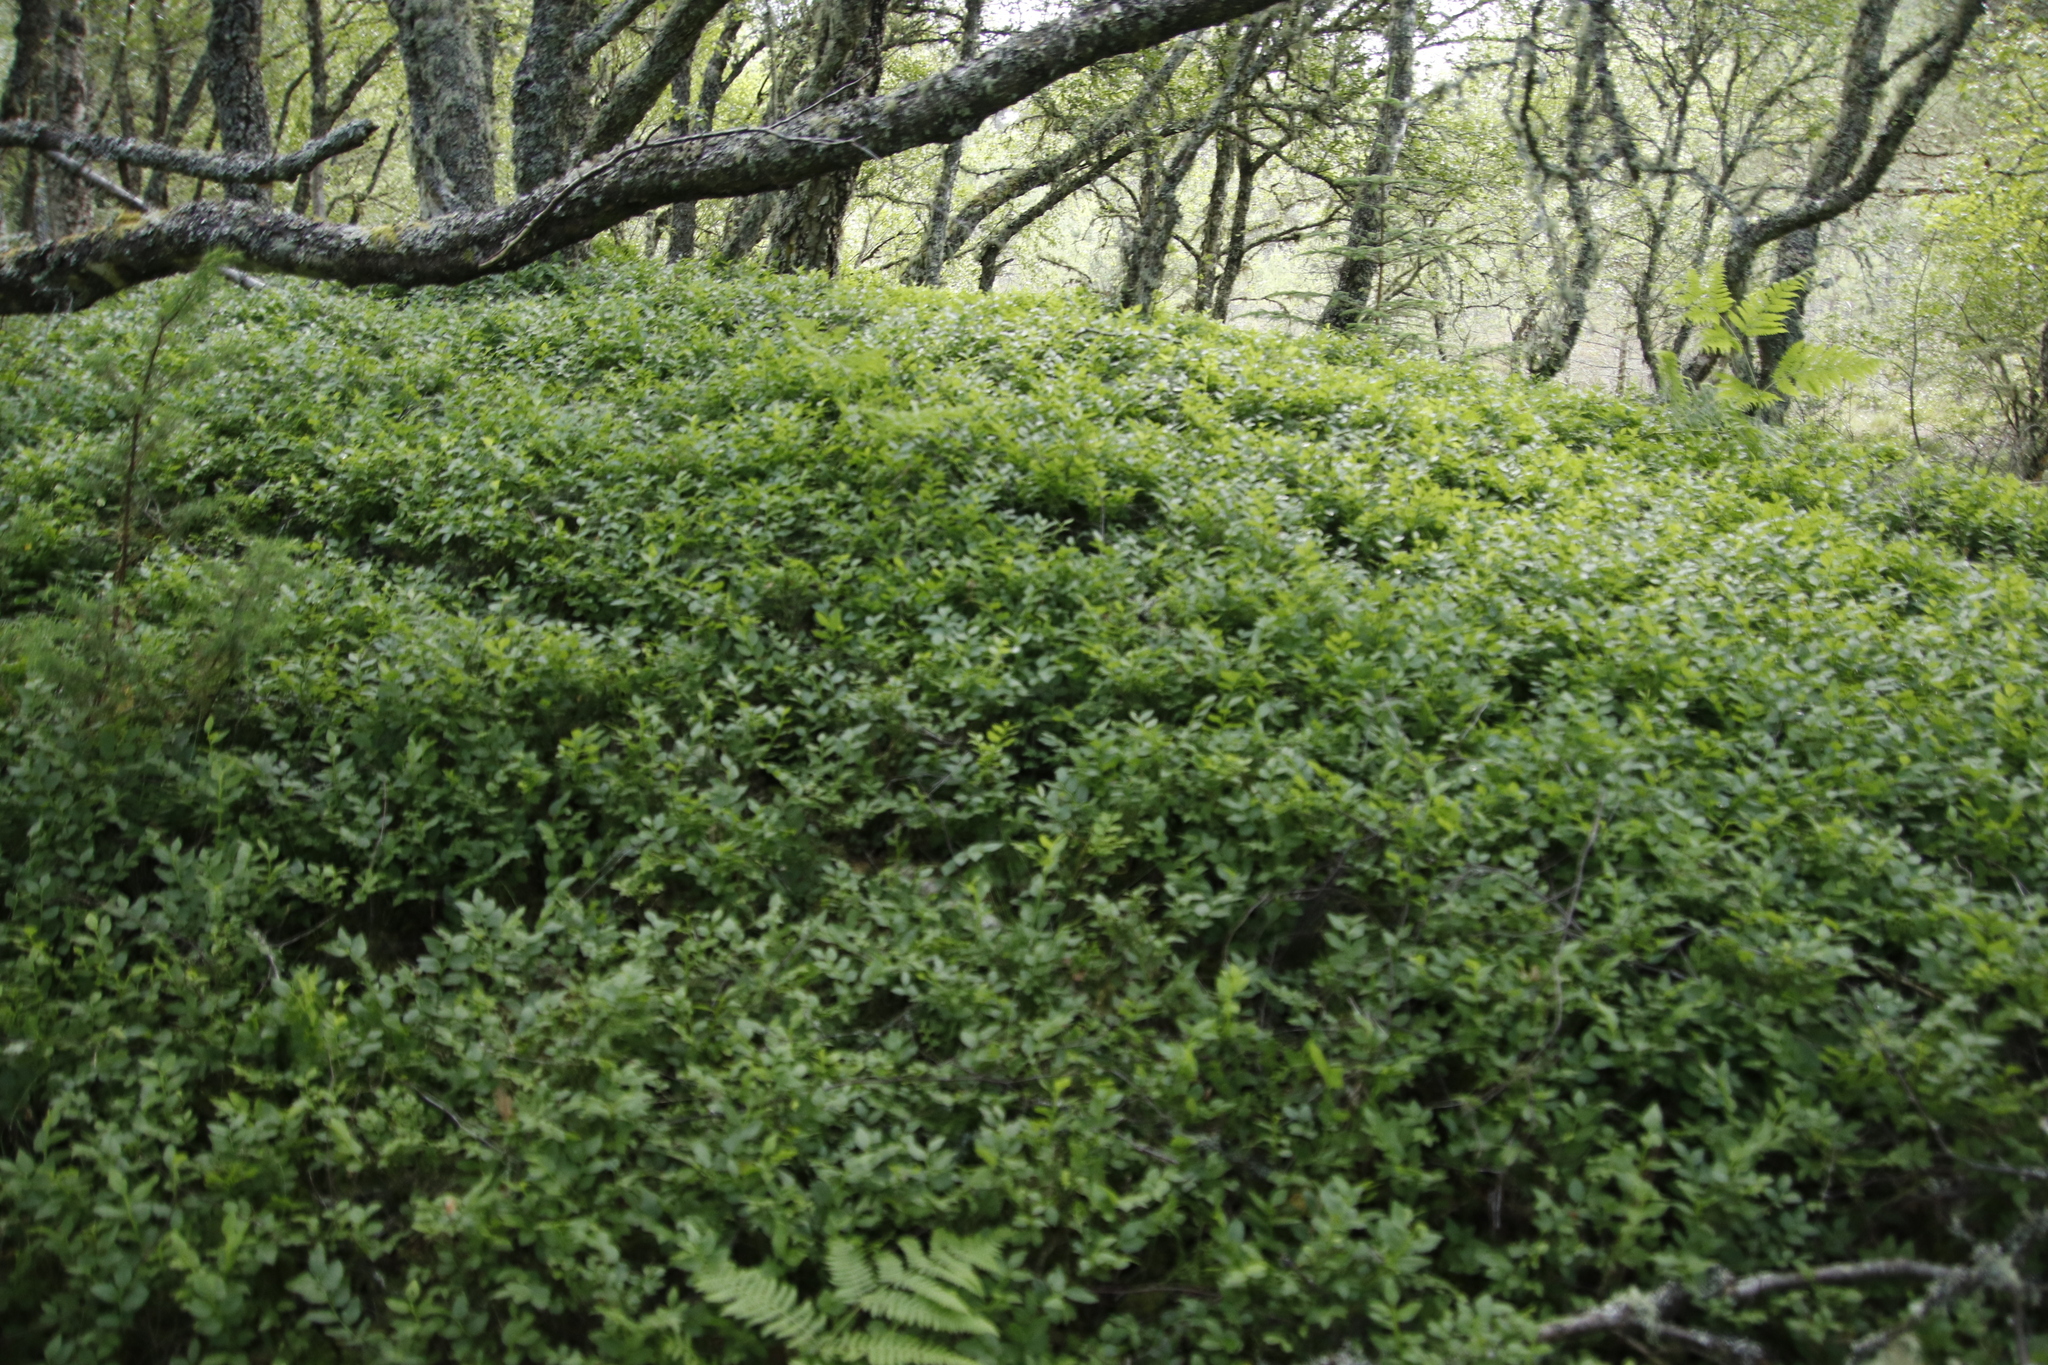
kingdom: Plantae
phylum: Tracheophyta
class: Magnoliopsida
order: Ericales
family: Ericaceae
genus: Vaccinium
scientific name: Vaccinium myrtillus
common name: Bilberry
